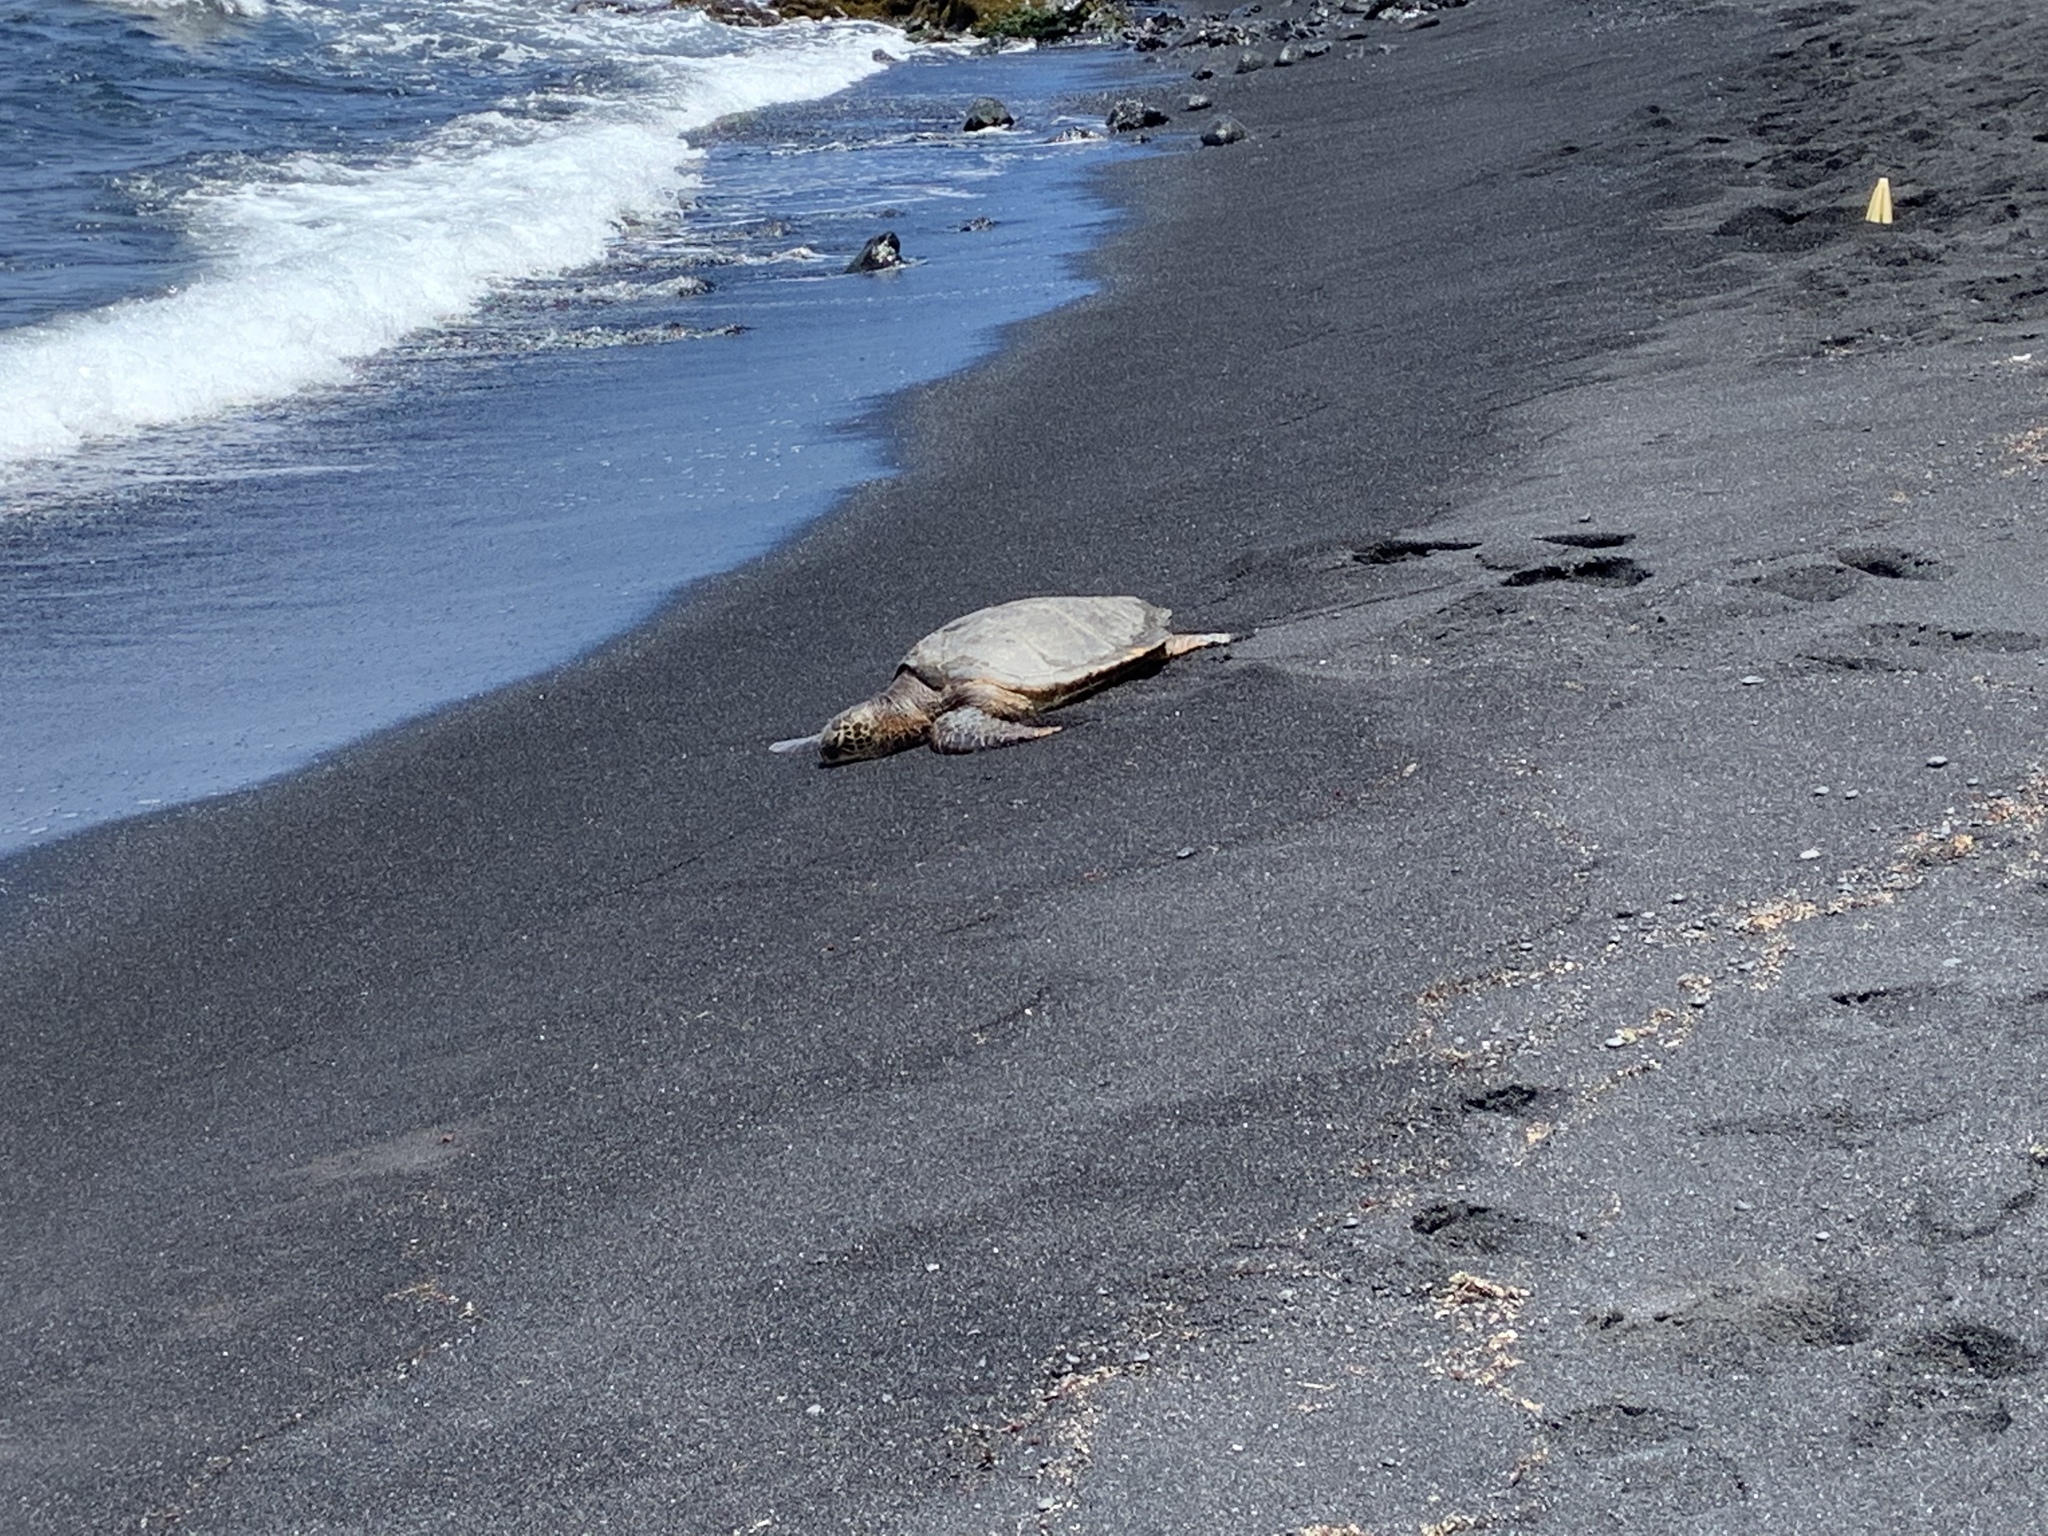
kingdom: Animalia
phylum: Chordata
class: Testudines
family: Cheloniidae
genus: Chelonia
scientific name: Chelonia mydas
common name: Green turtle
